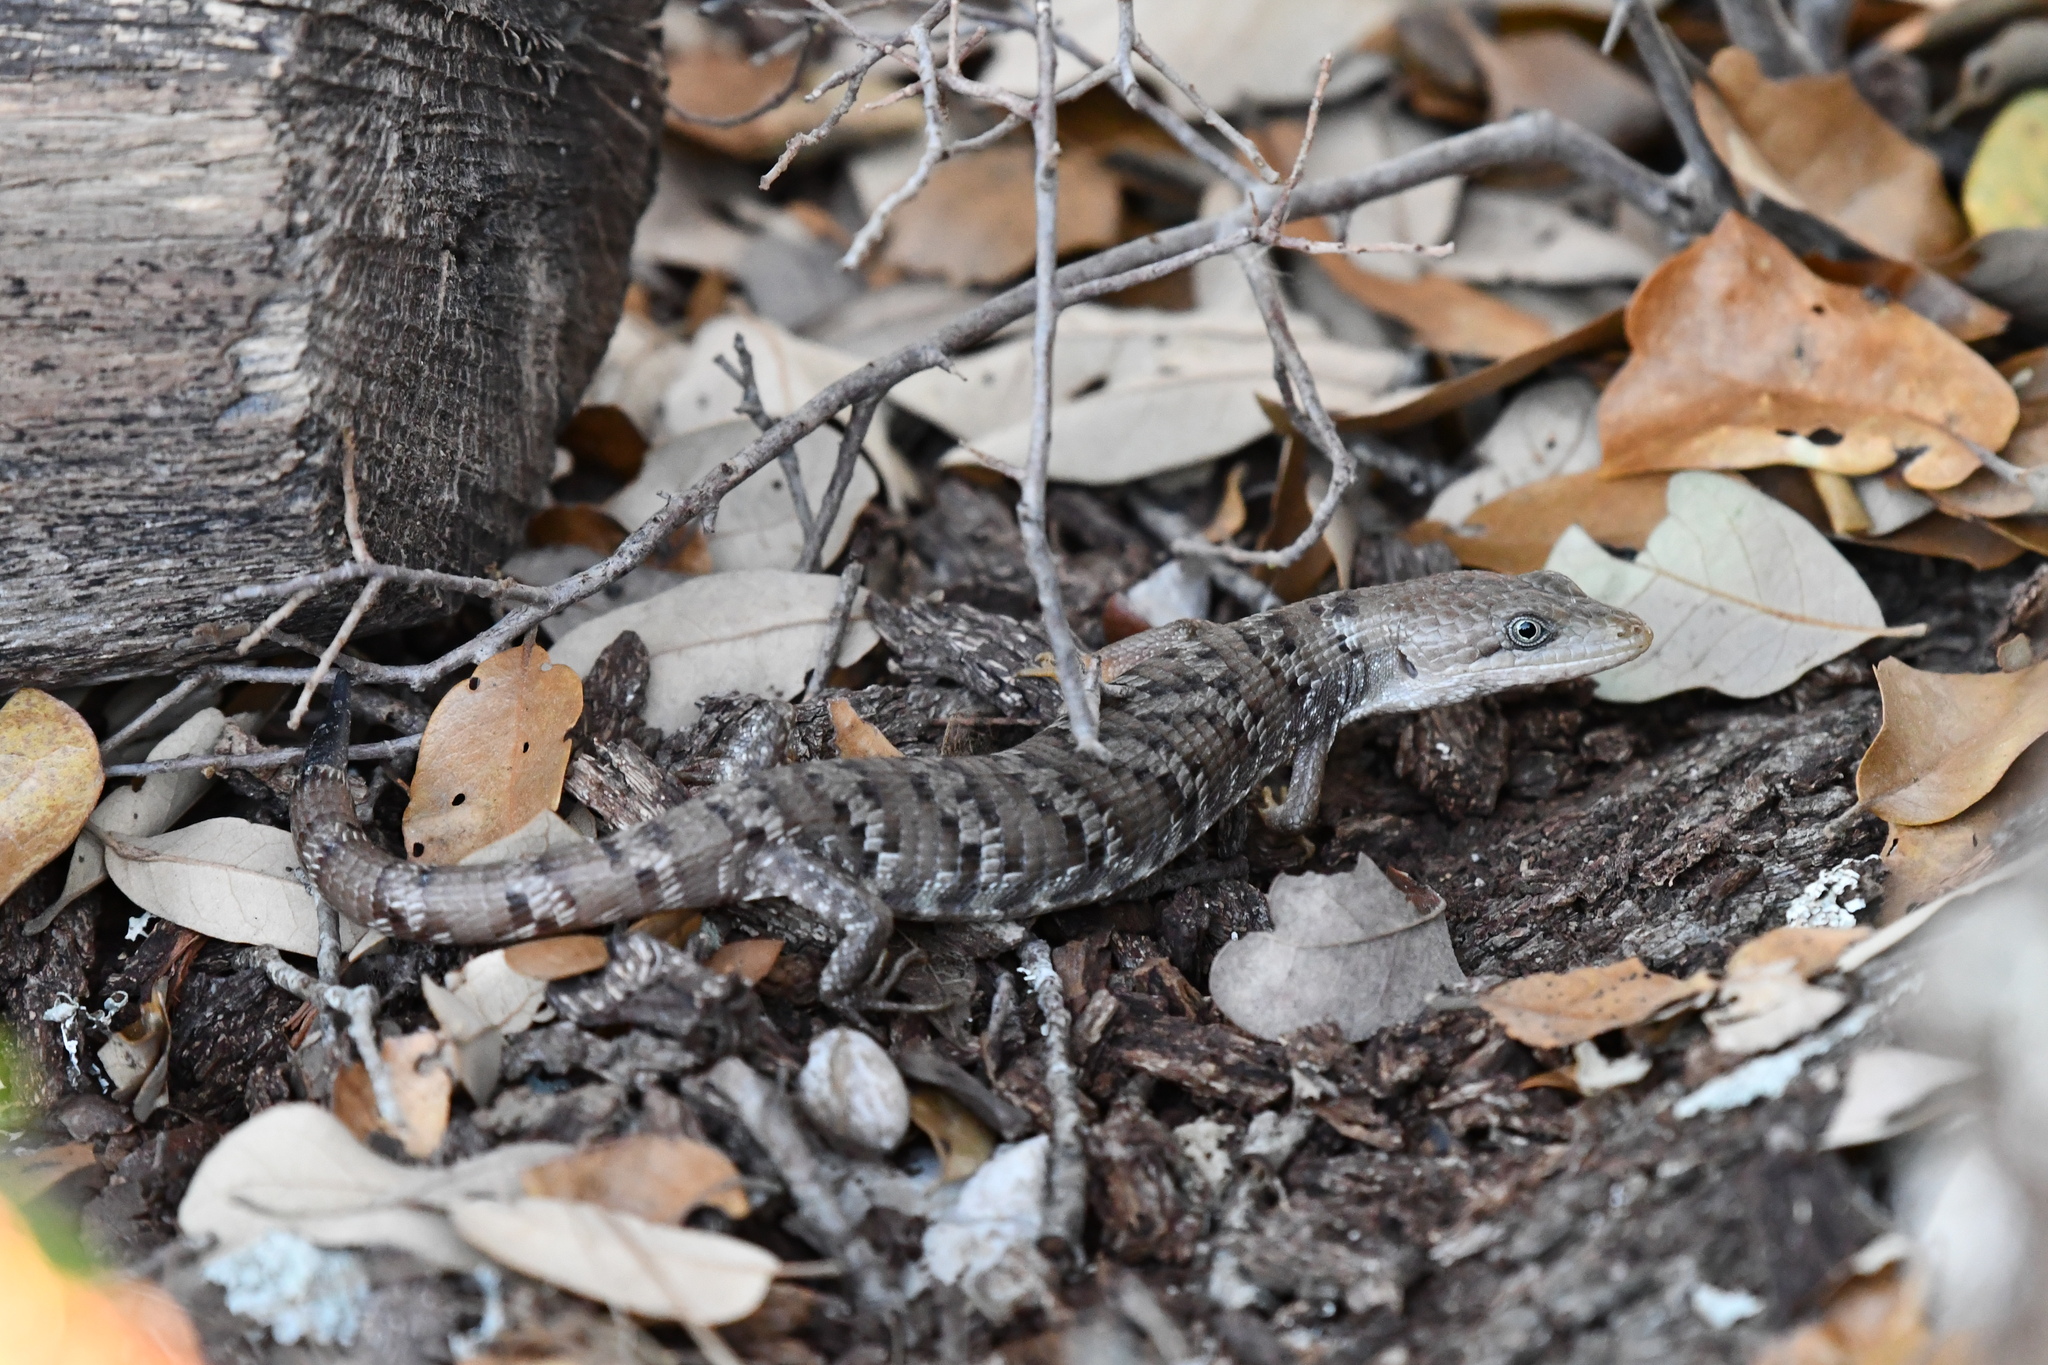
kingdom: Animalia
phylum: Chordata
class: Squamata
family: Anguidae
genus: Gerrhonotus
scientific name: Gerrhonotus infernalis
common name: Texas alligator lizard
